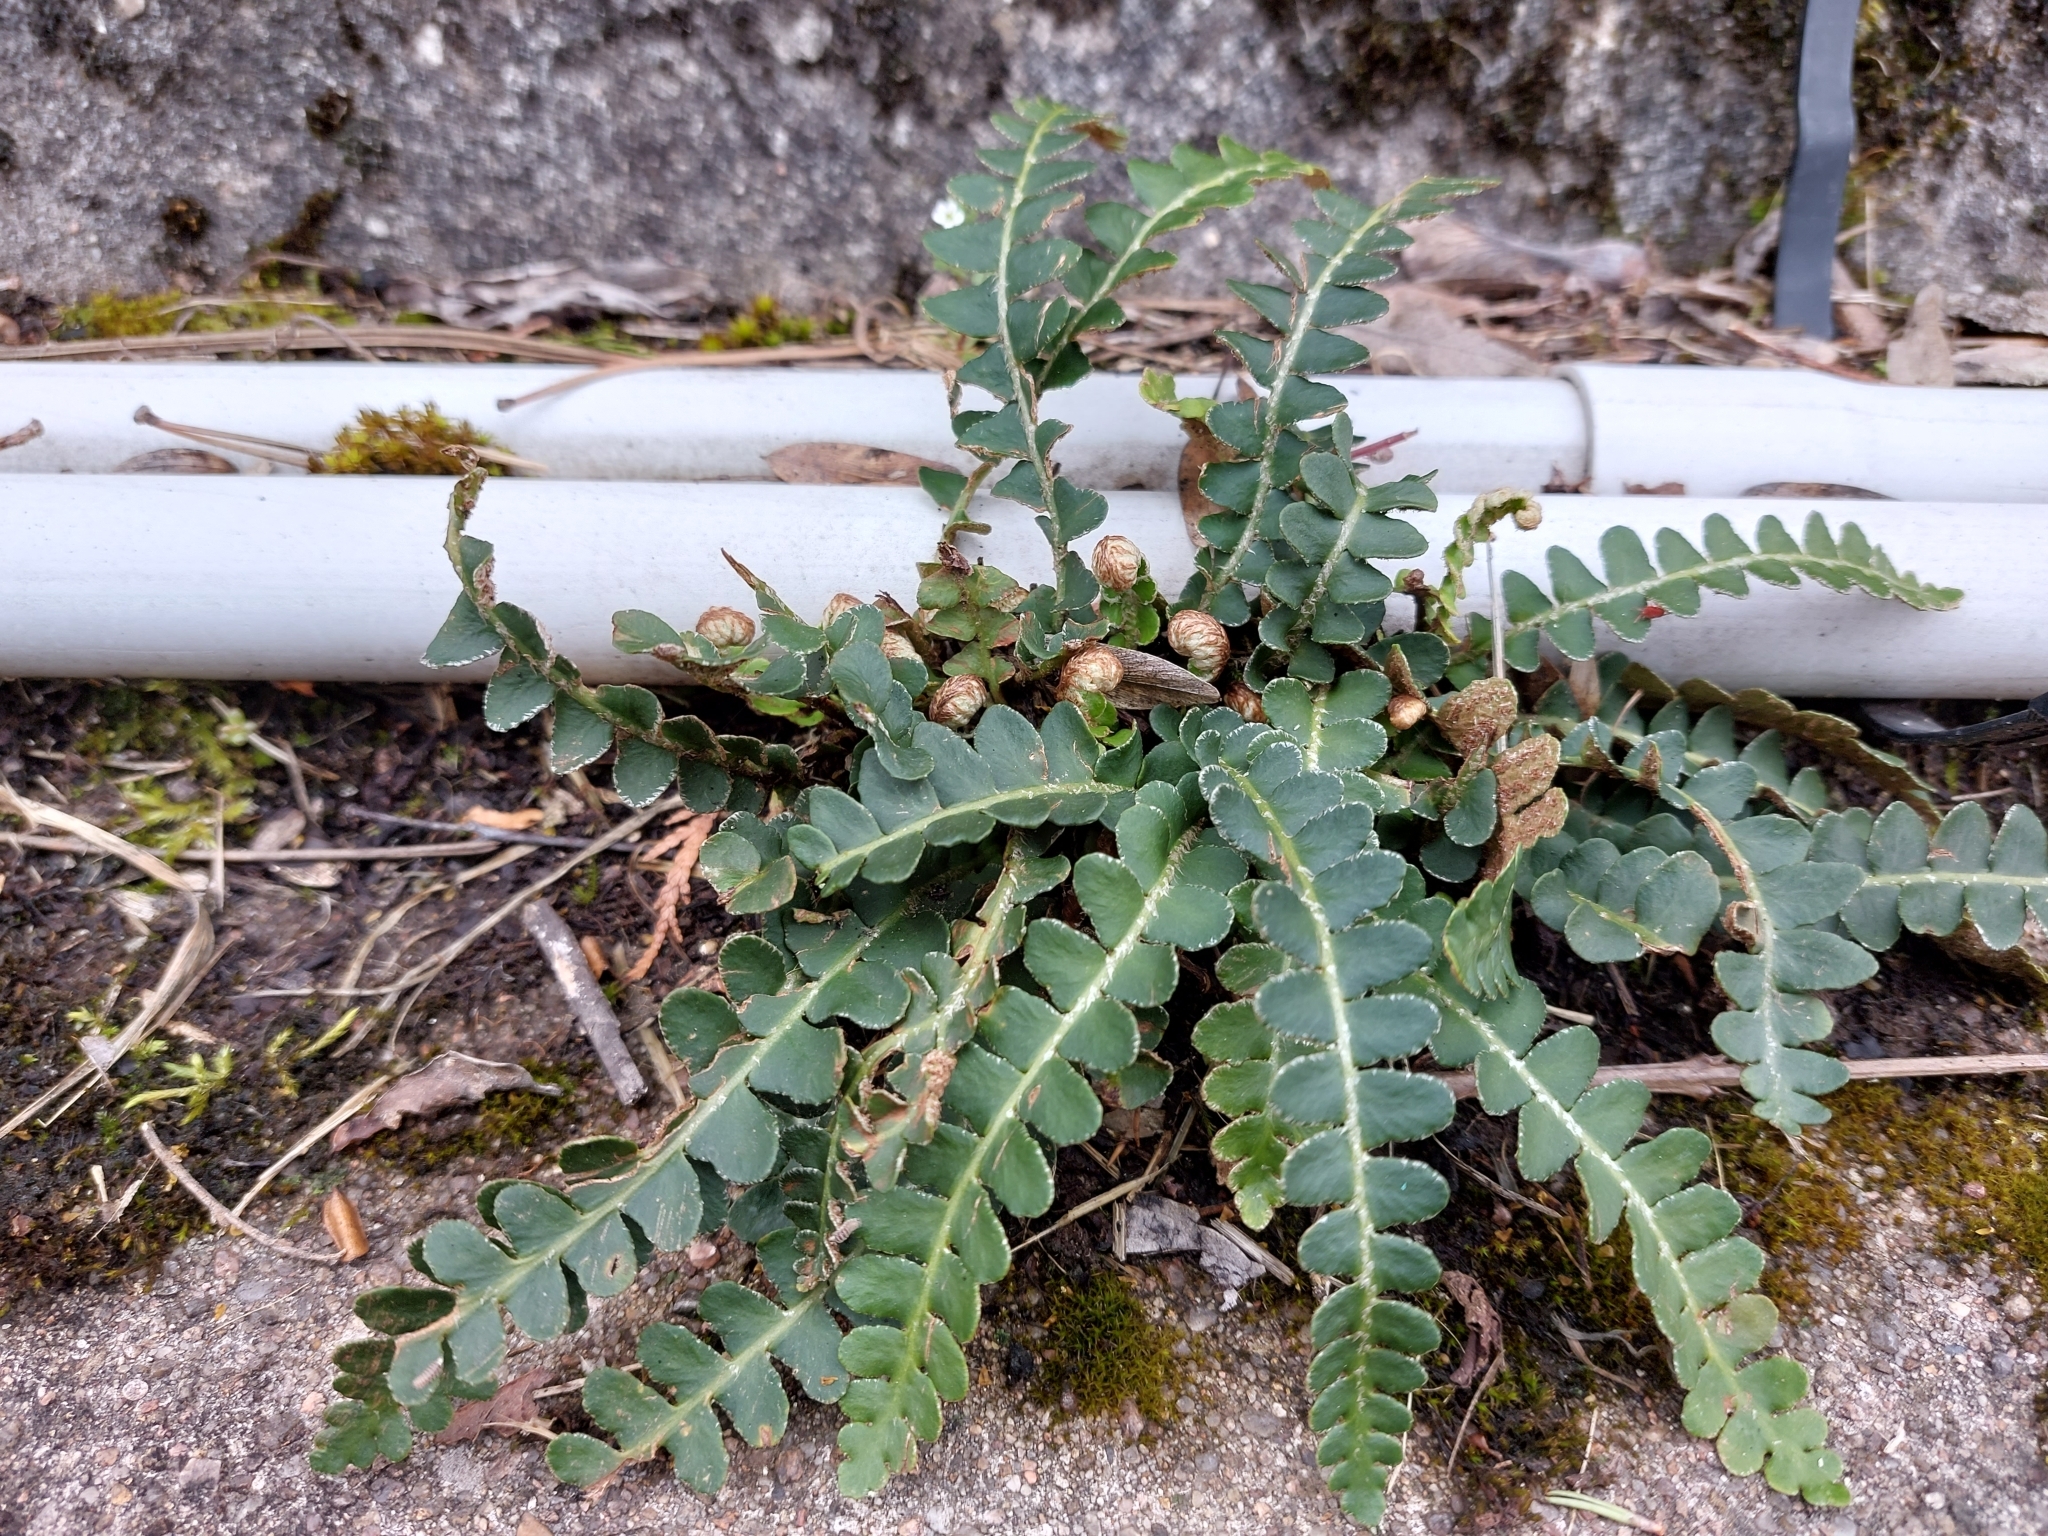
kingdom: Plantae
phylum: Tracheophyta
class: Polypodiopsida
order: Polypodiales
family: Aspleniaceae
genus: Asplenium
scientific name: Asplenium ceterach
